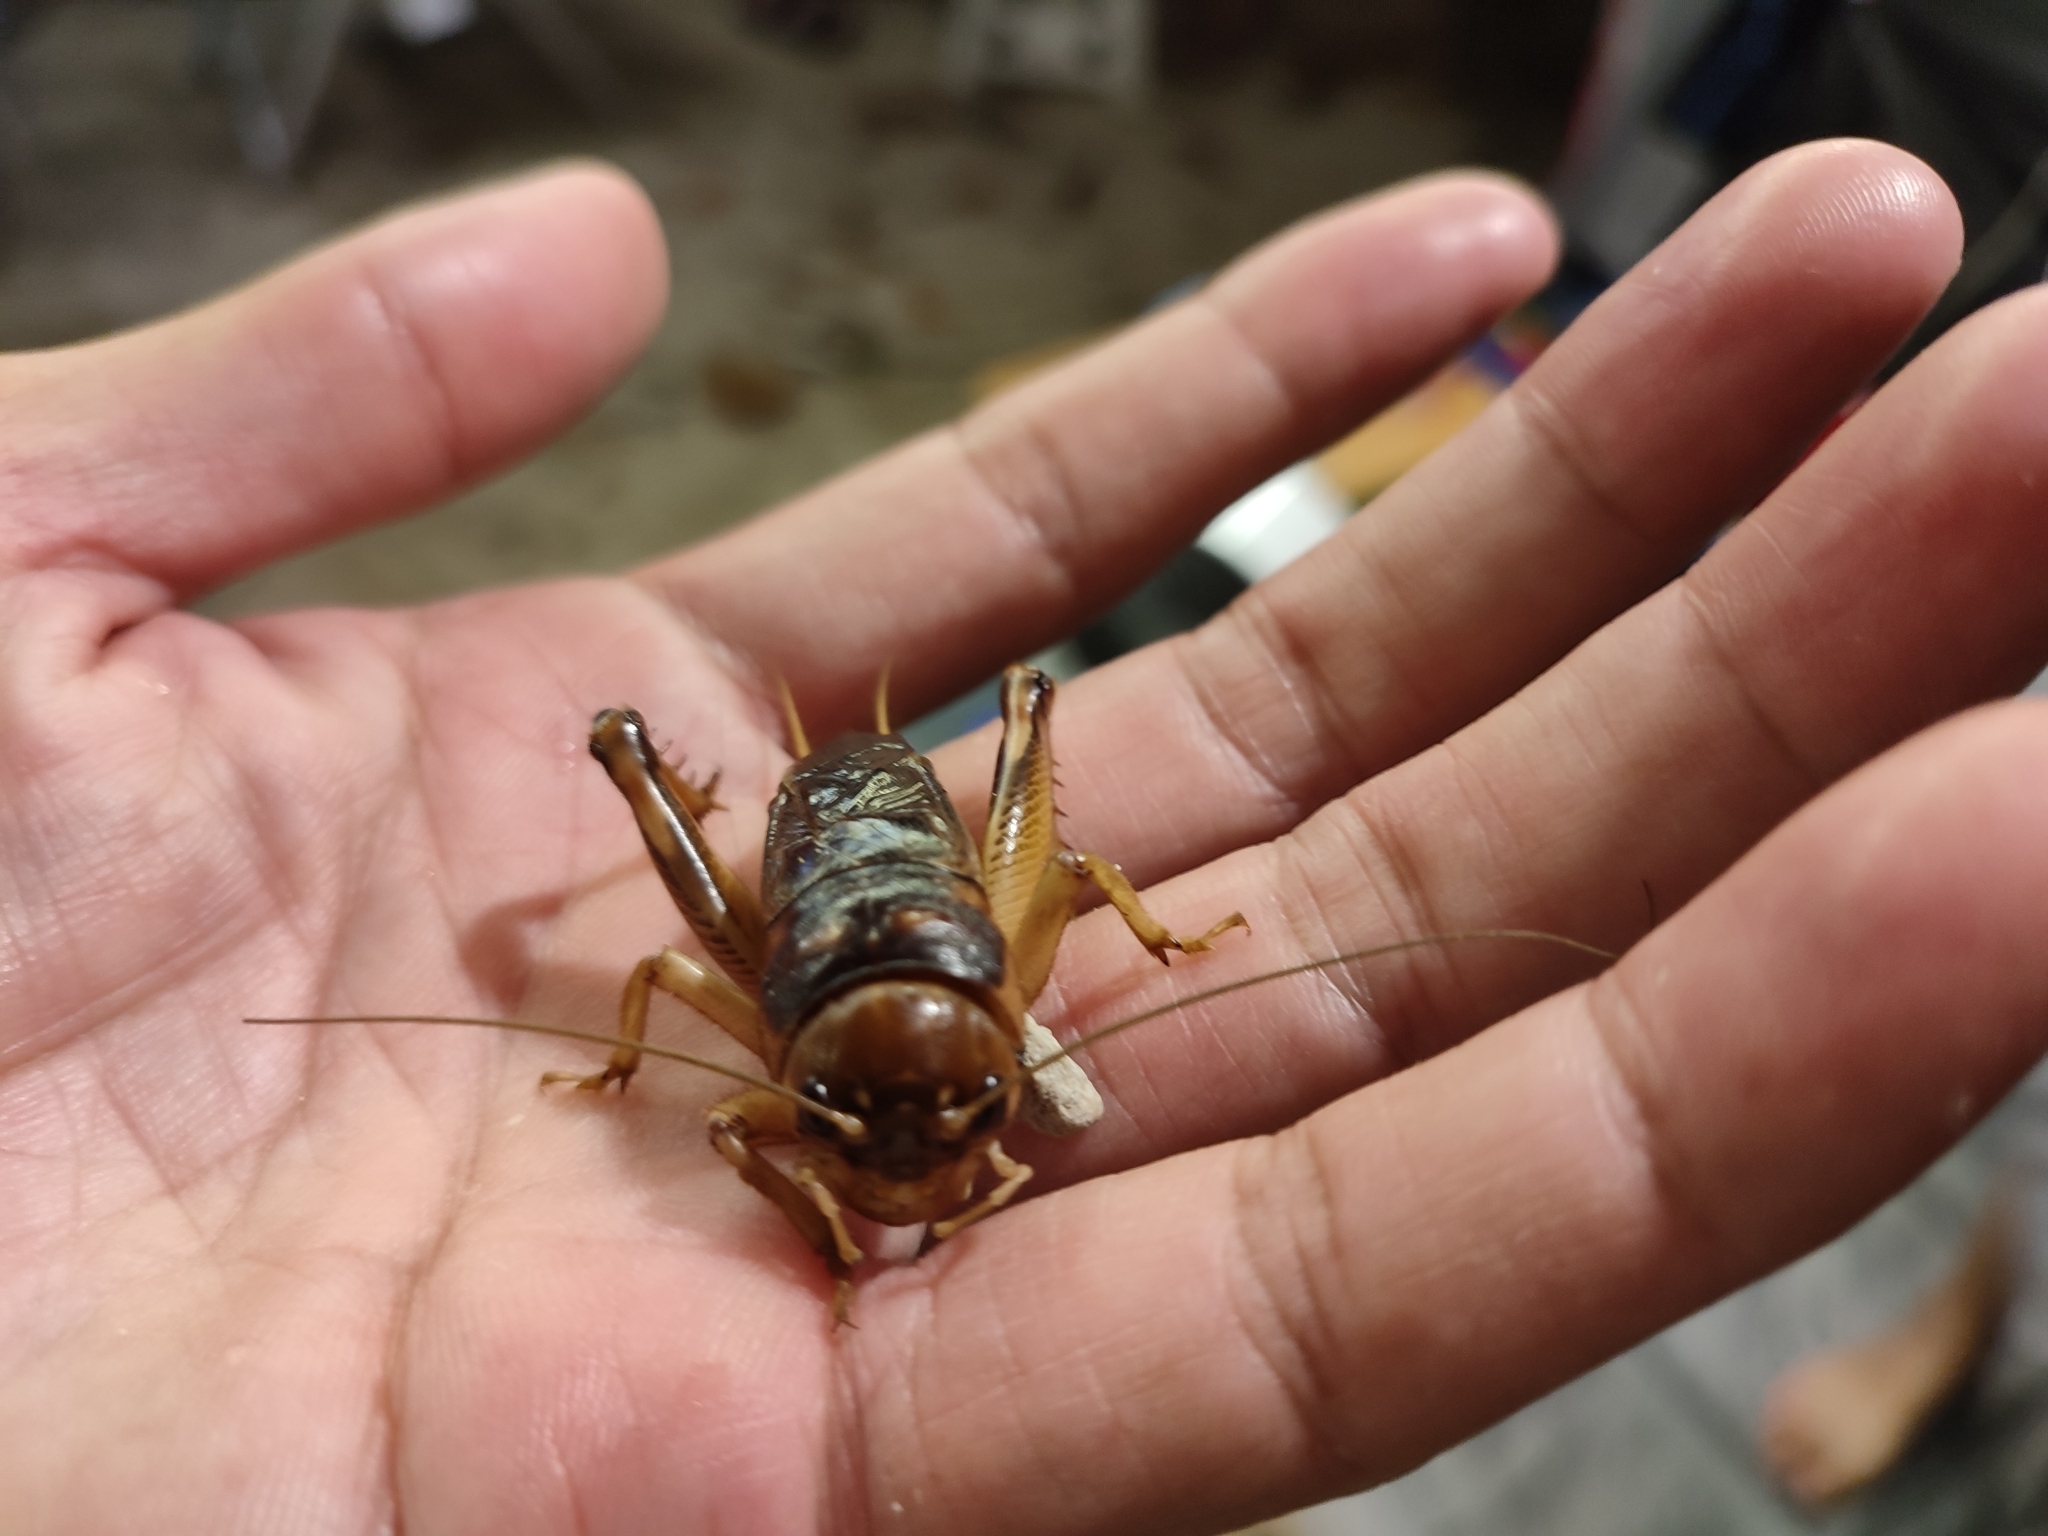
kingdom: Animalia
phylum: Arthropoda
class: Insecta
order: Orthoptera
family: Gryllidae
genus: Tarbinskiellus
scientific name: Tarbinskiellus portentosus
